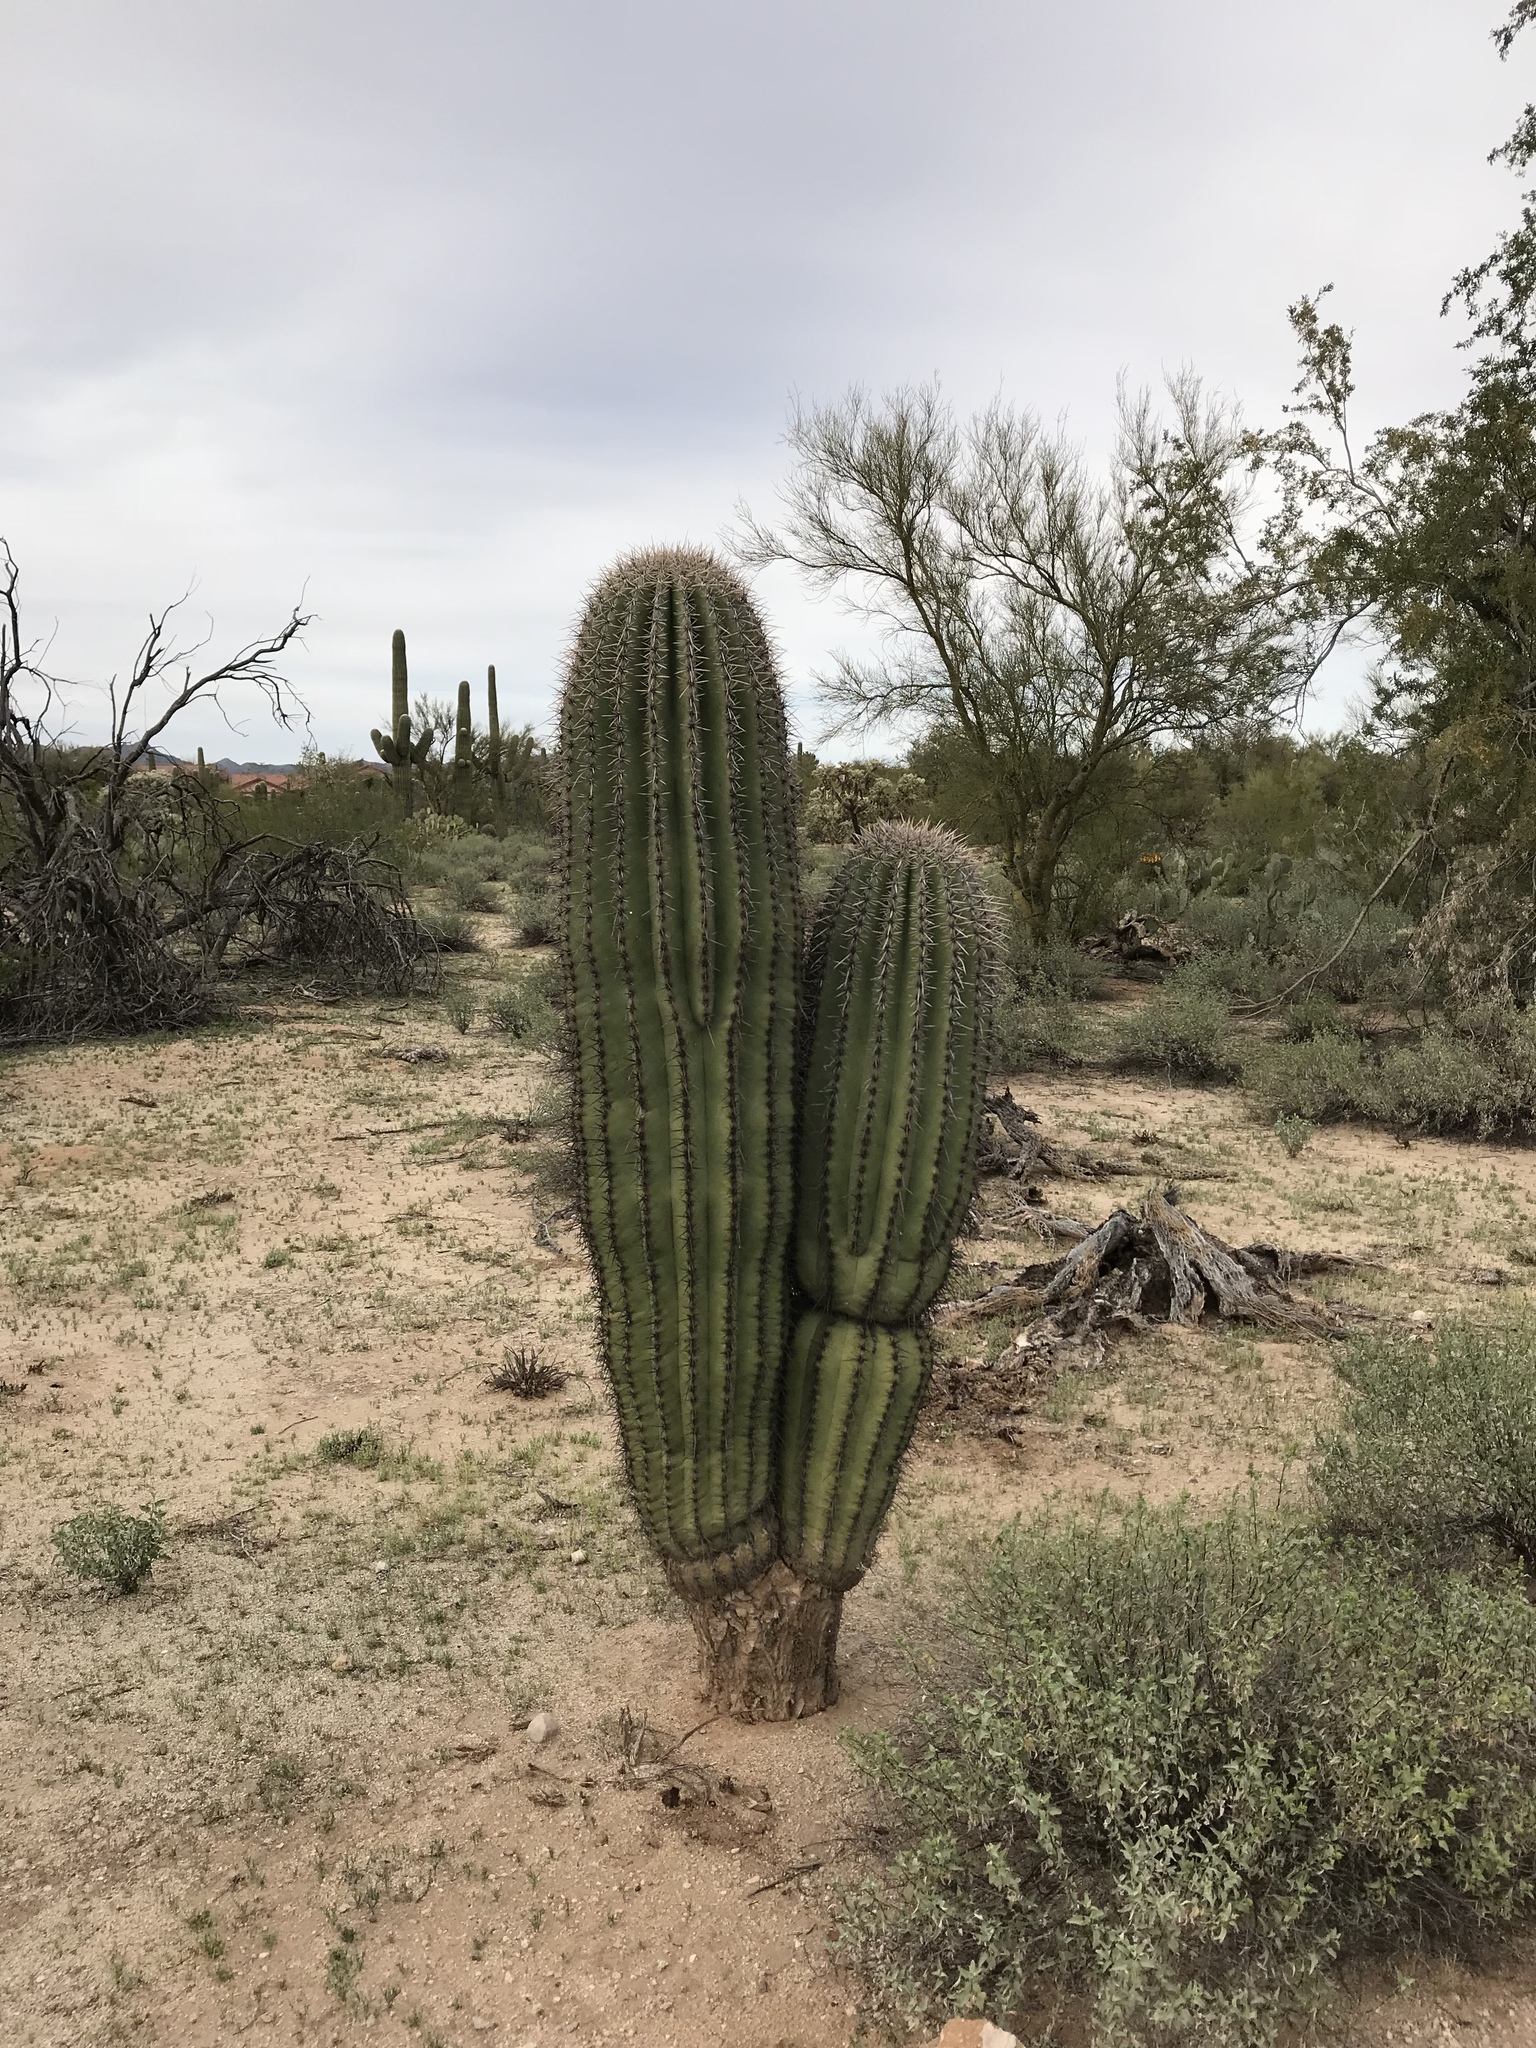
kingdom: Plantae
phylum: Tracheophyta
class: Magnoliopsida
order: Caryophyllales
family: Cactaceae
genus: Carnegiea
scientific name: Carnegiea gigantea
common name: Saguaro
